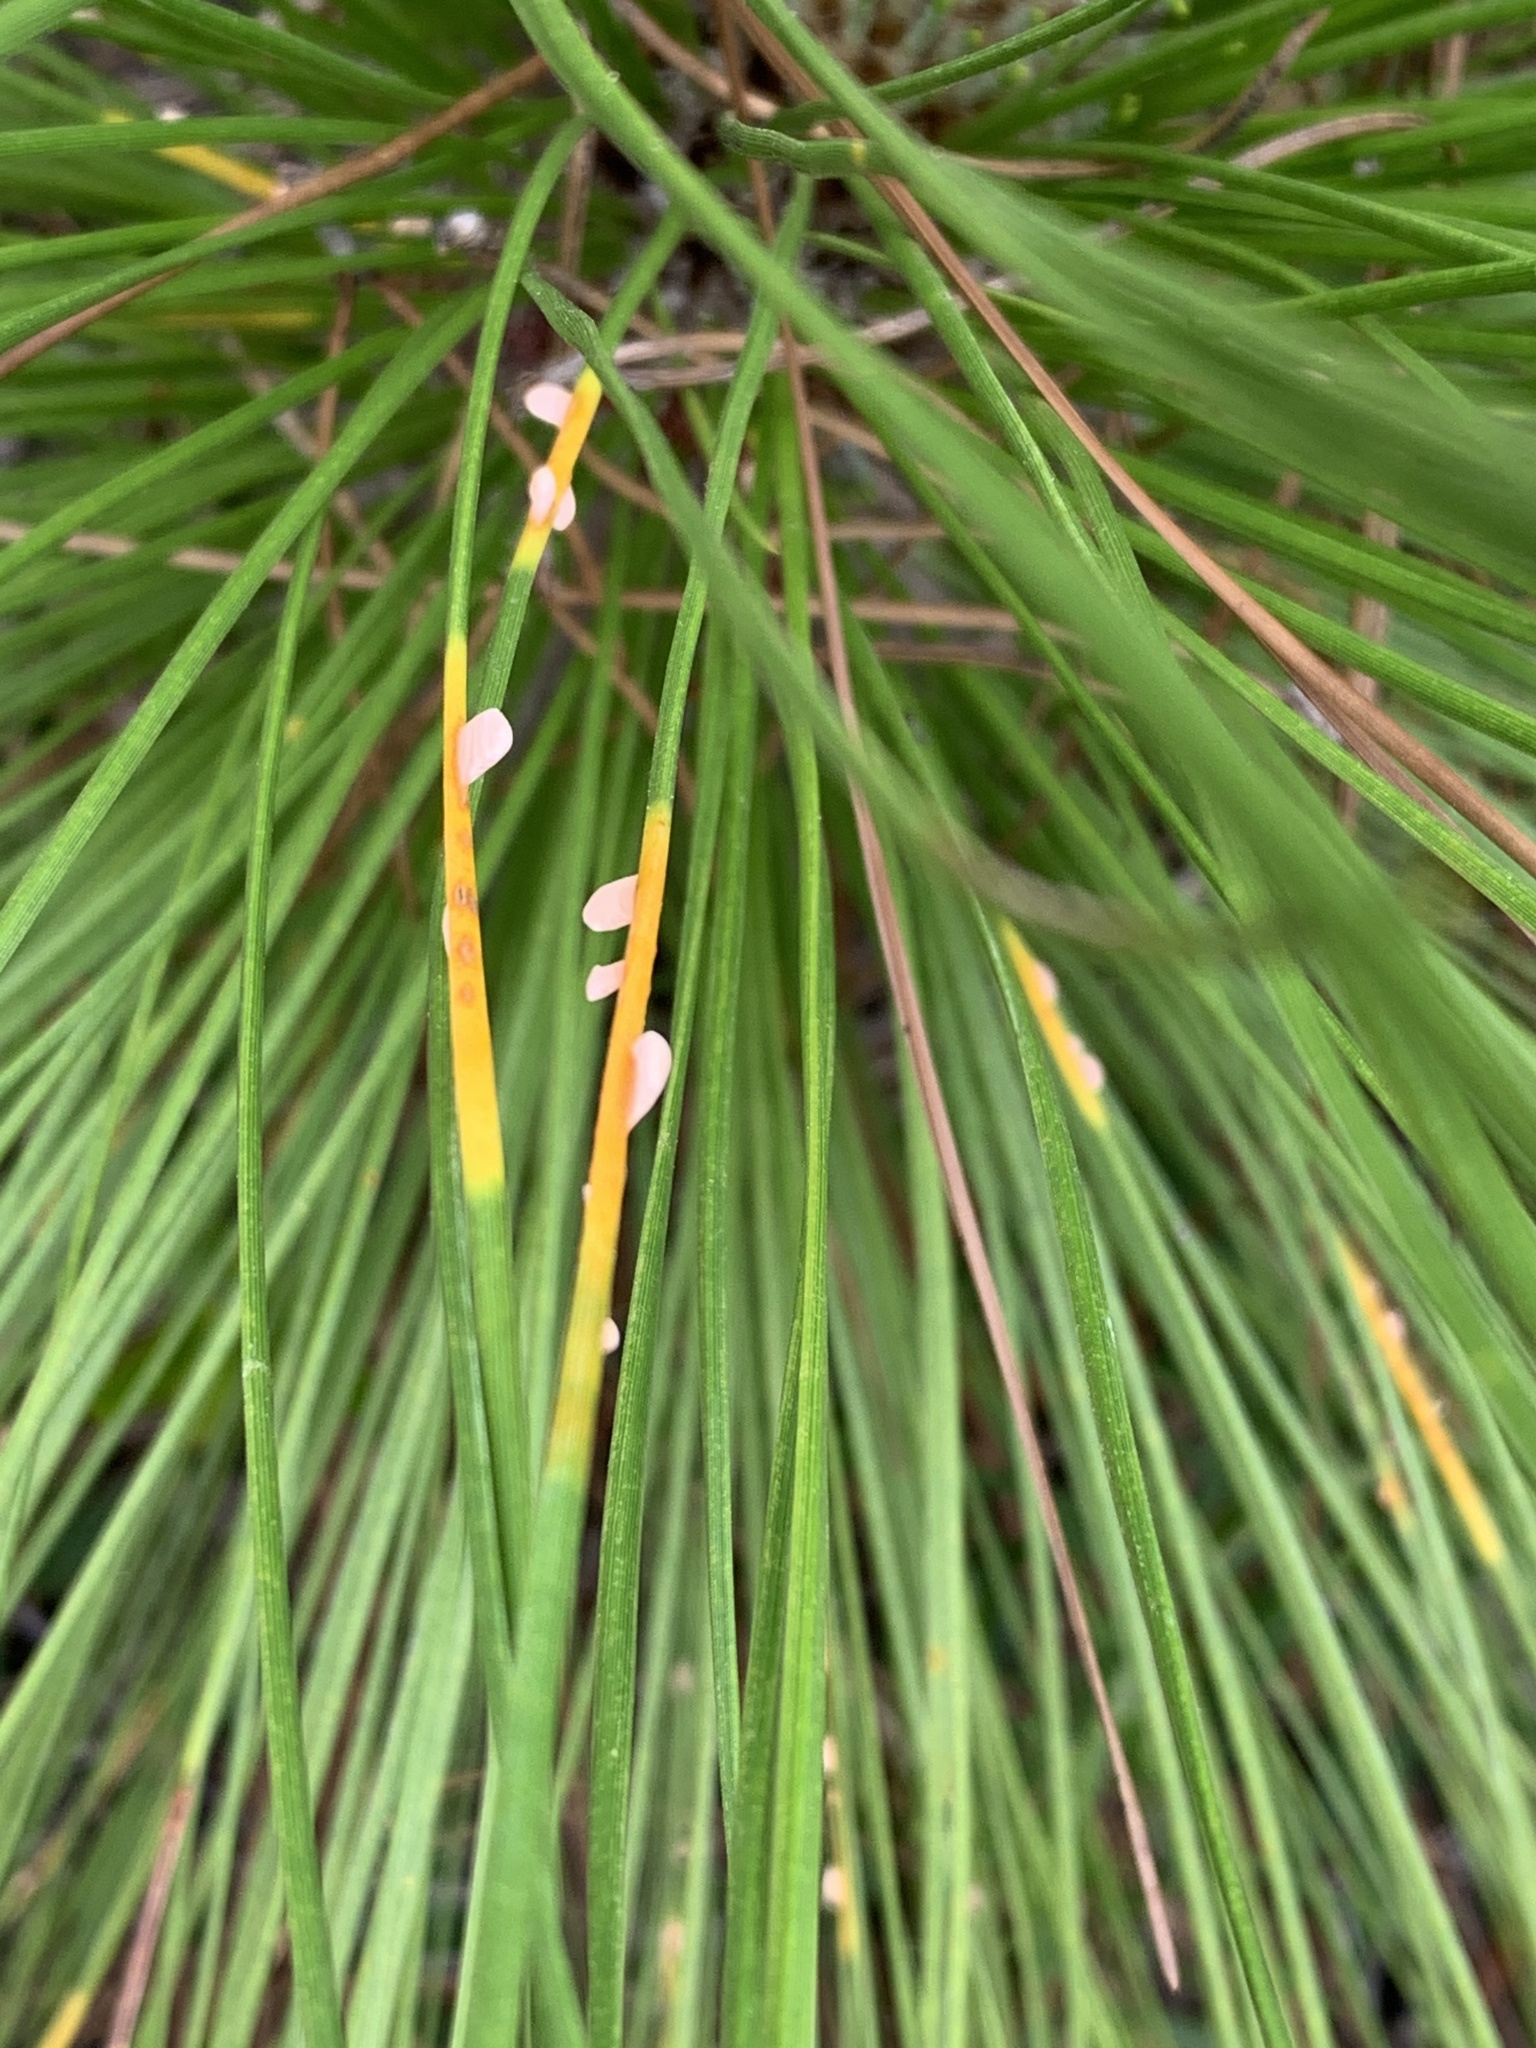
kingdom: Fungi
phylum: Basidiomycota
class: Pucciniomycetes
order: Pucciniales
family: Coleosporiaceae
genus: Coleosporium
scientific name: Coleosporium asterum
